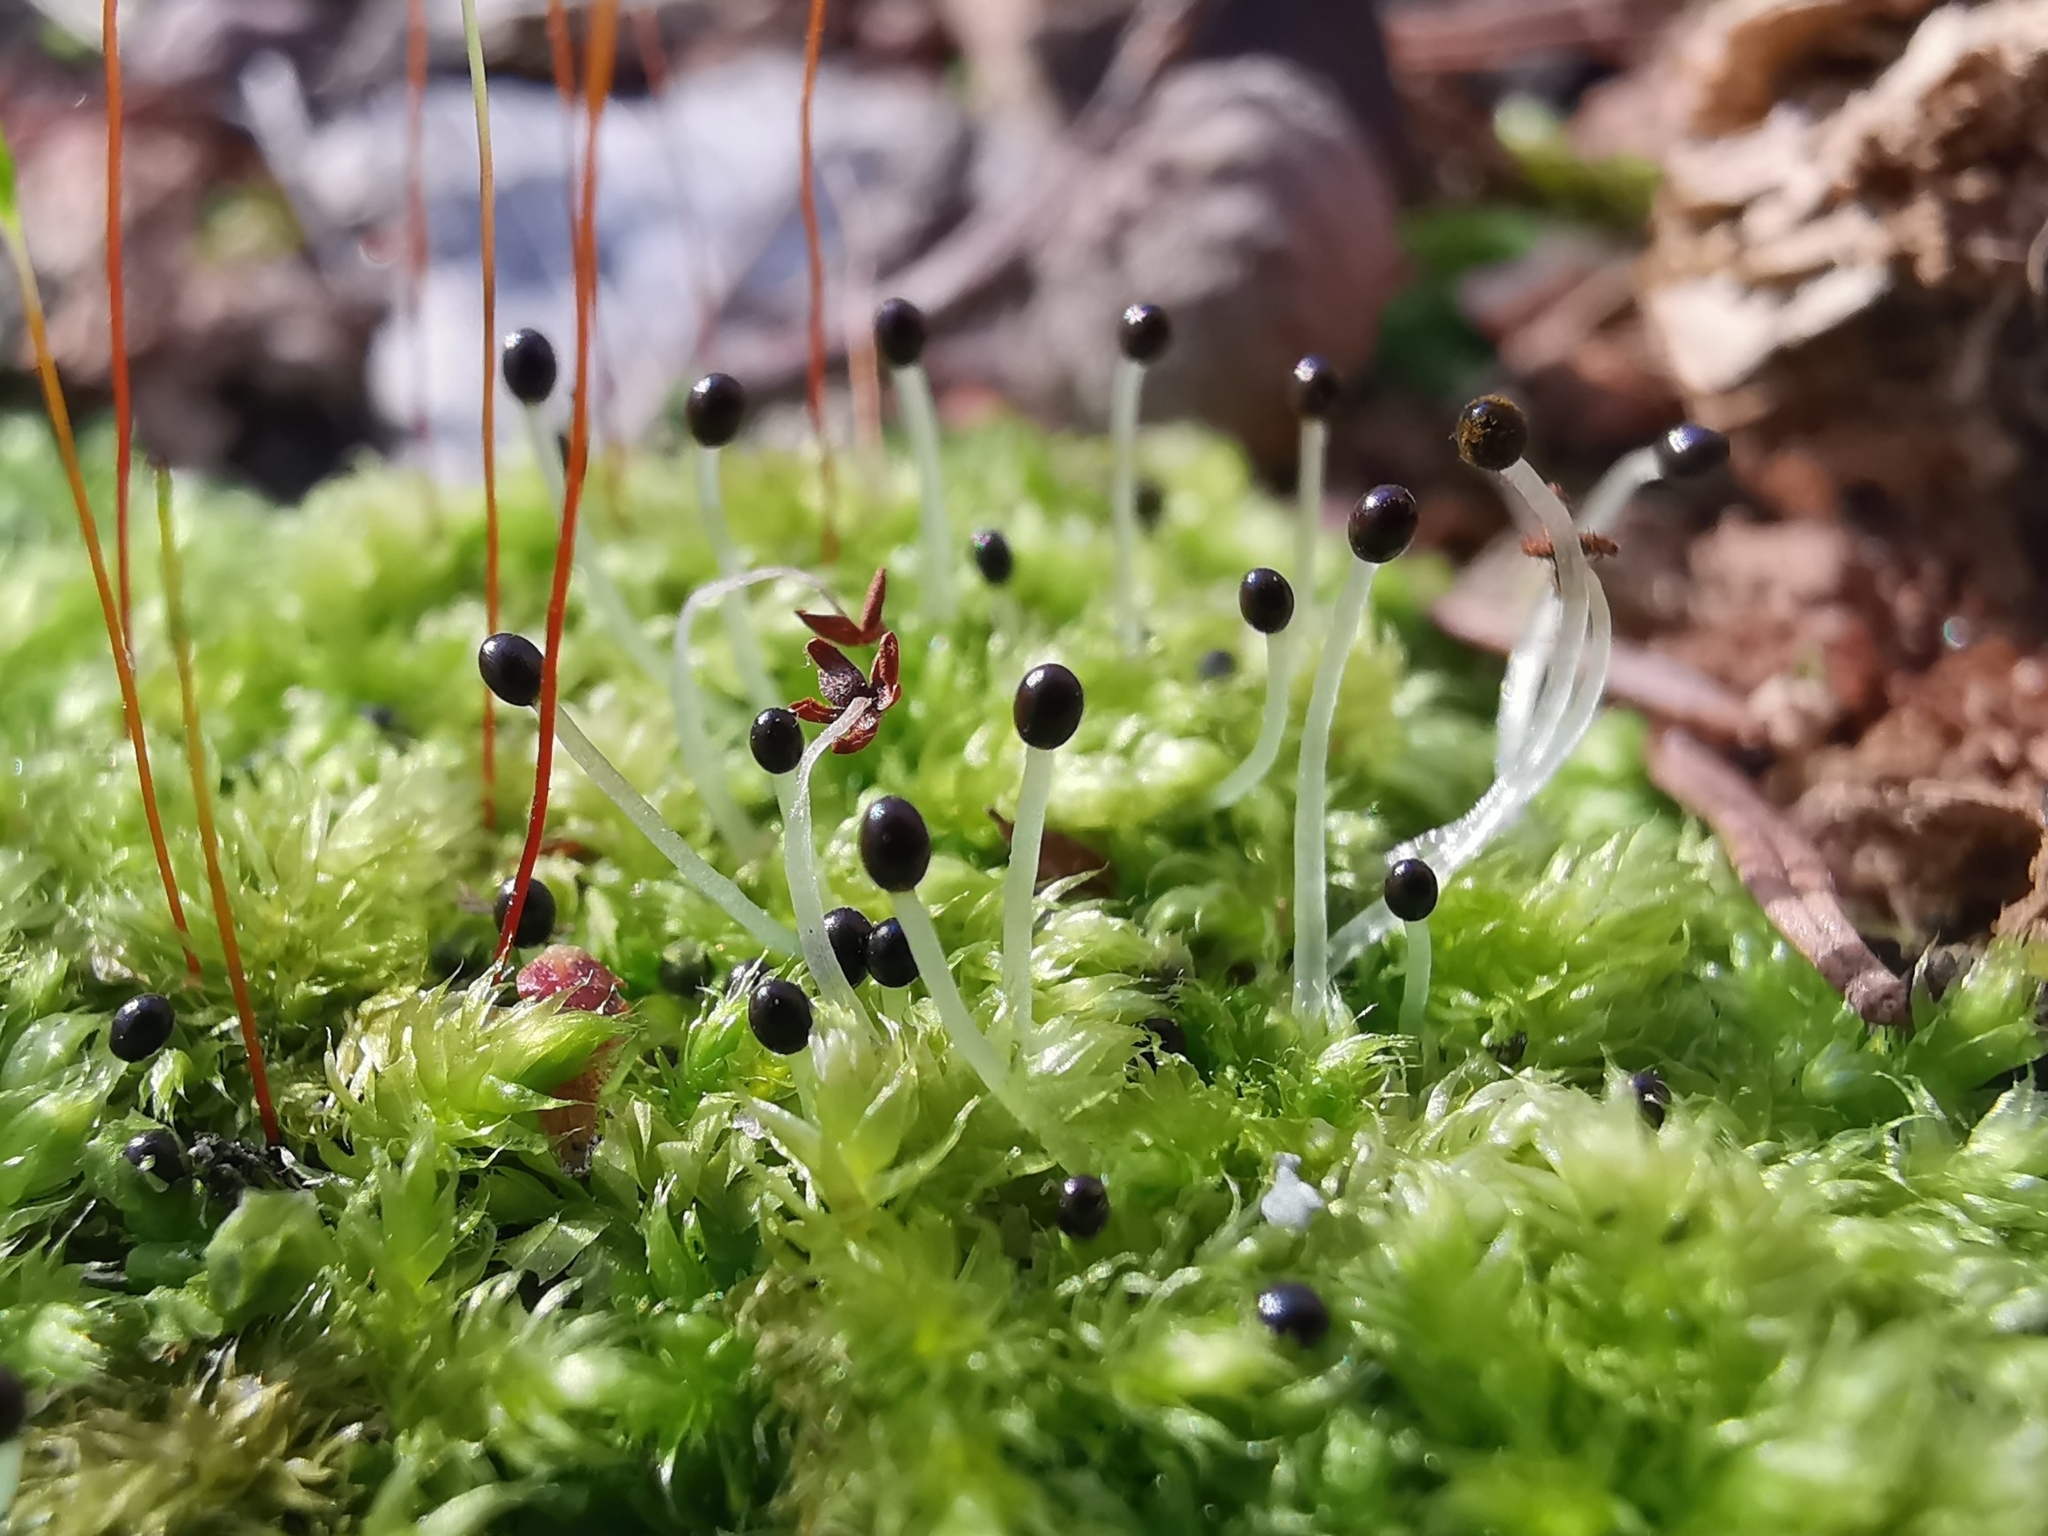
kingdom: Plantae
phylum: Marchantiophyta
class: Jungermanniopsida
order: Jungermanniales
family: Lophocoleaceae
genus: Lophocolea
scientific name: Lophocolea heterophylla
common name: Variable-leaved crestwort
